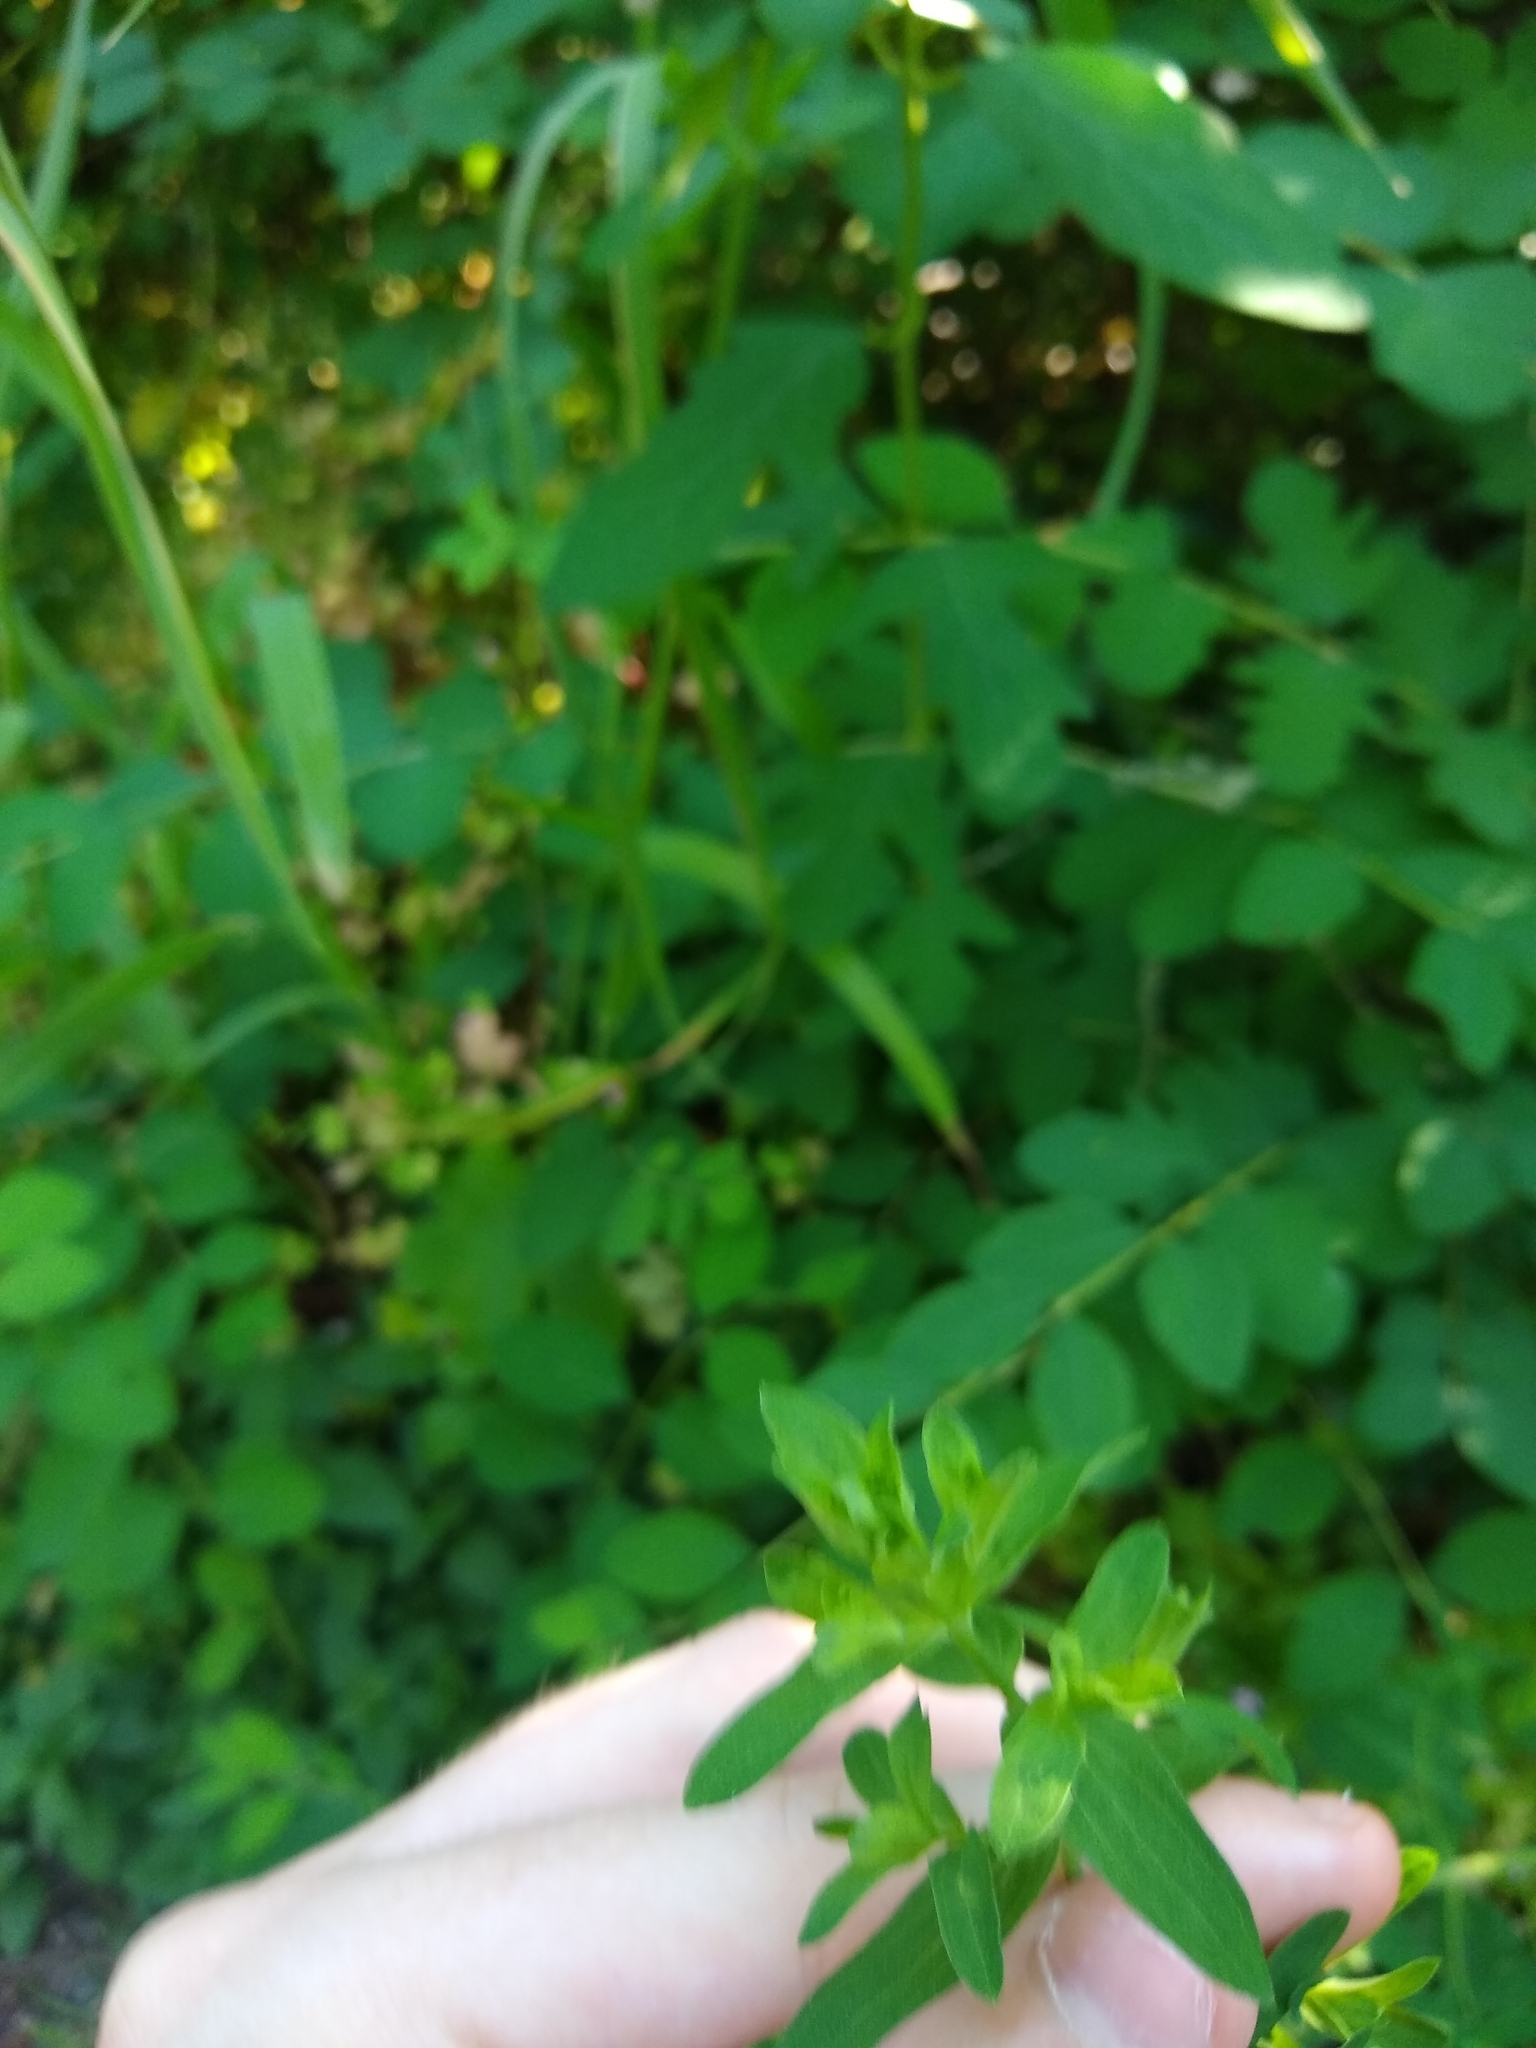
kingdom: Plantae
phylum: Tracheophyta
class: Magnoliopsida
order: Malpighiales
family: Hypericaceae
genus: Hypericum
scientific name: Hypericum perforatum
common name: Common st. johnswort
